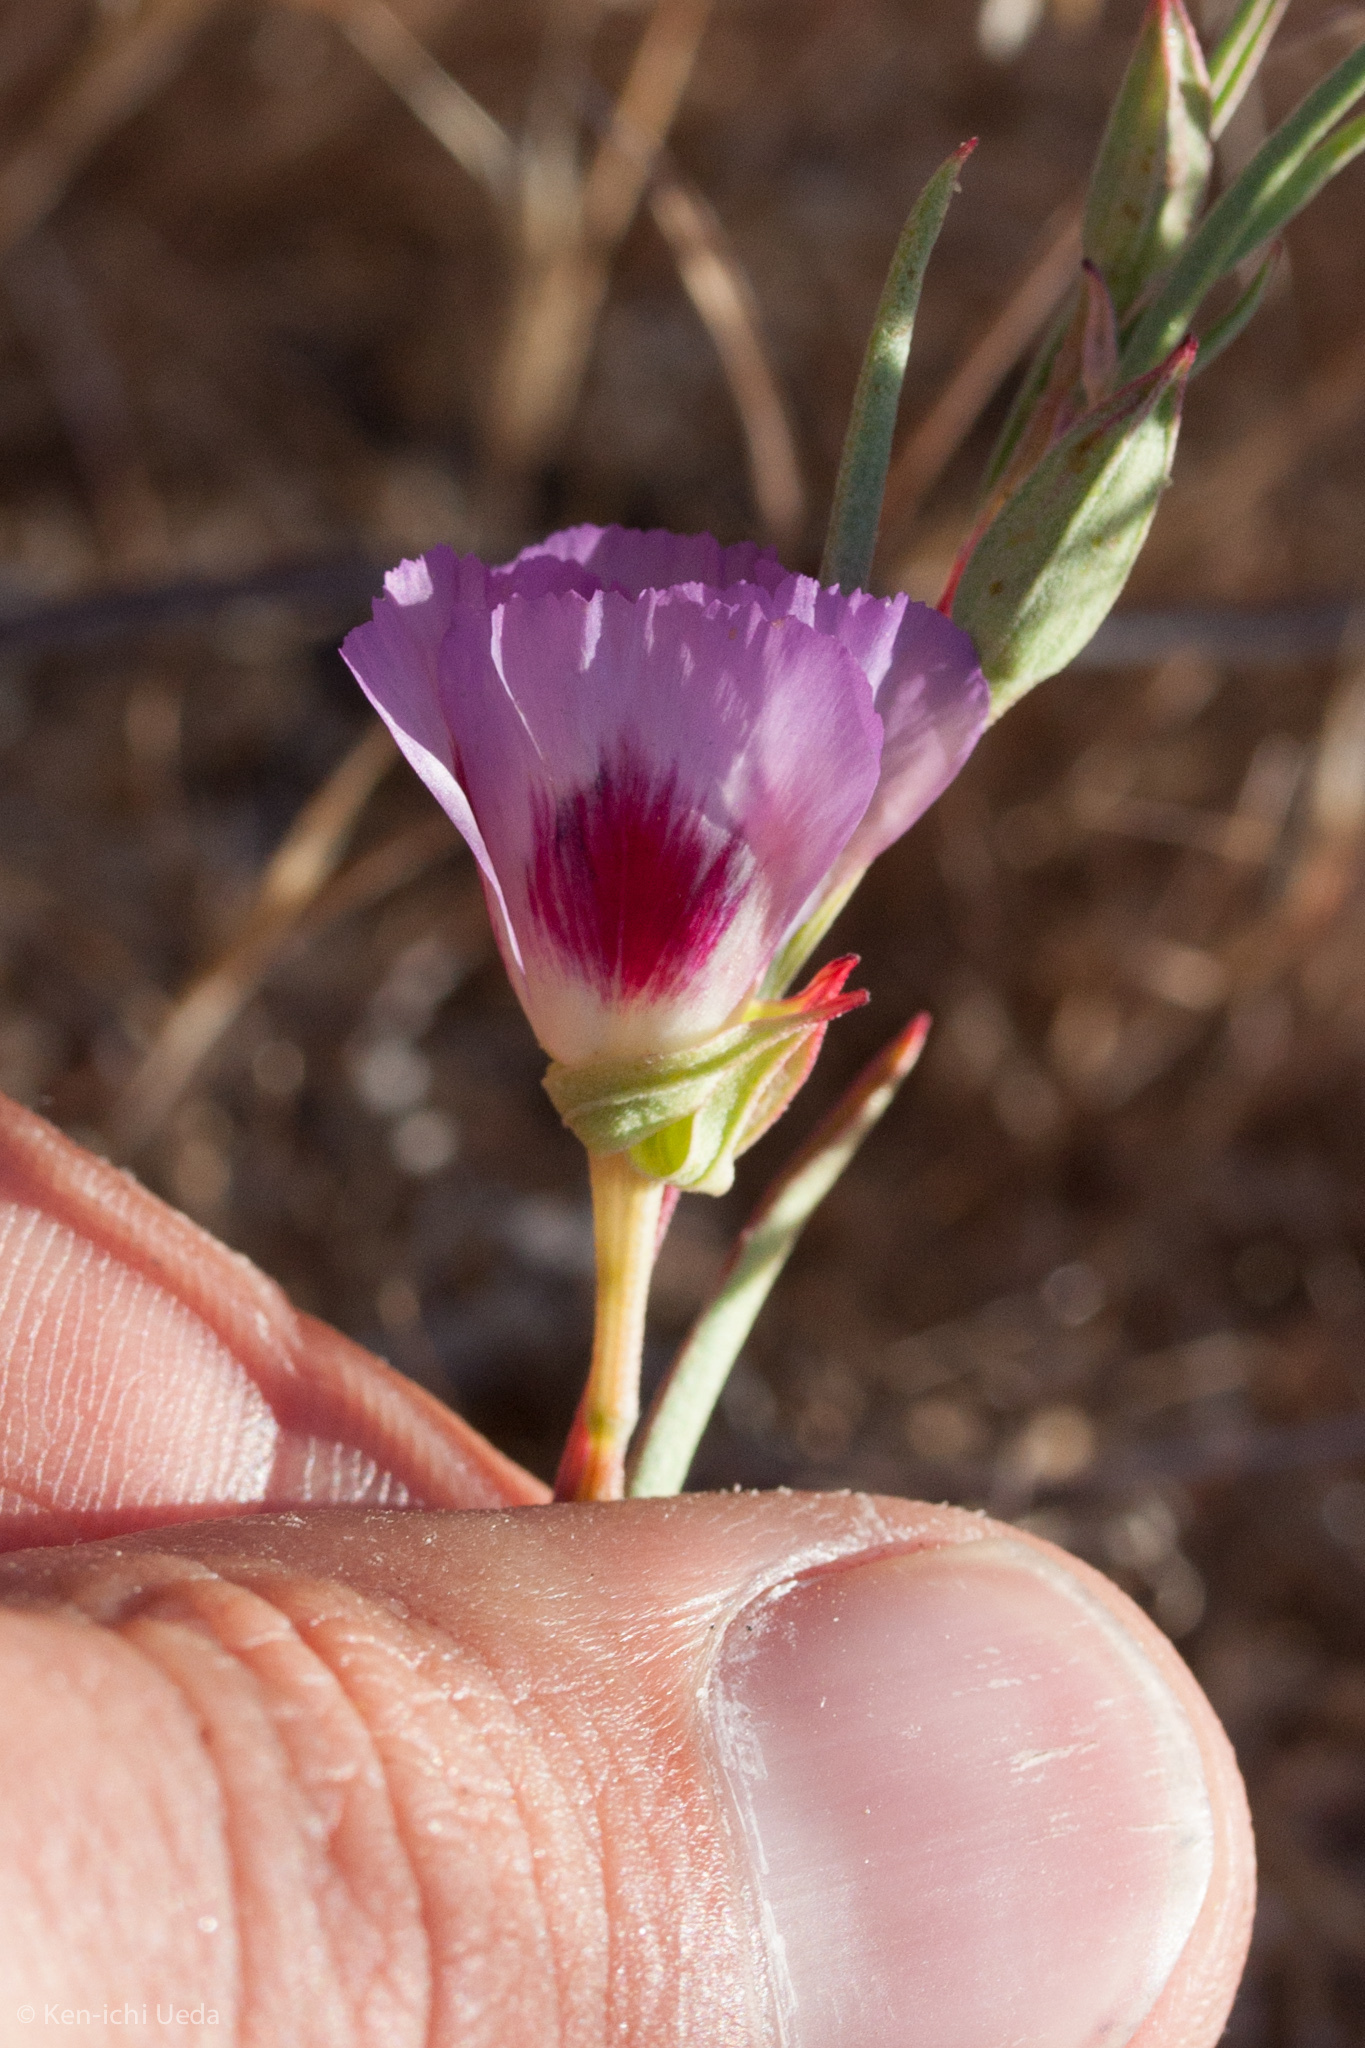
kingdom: Plantae
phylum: Tracheophyta
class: Magnoliopsida
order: Myrtales
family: Onagraceae
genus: Clarkia
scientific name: Clarkia speciosa
